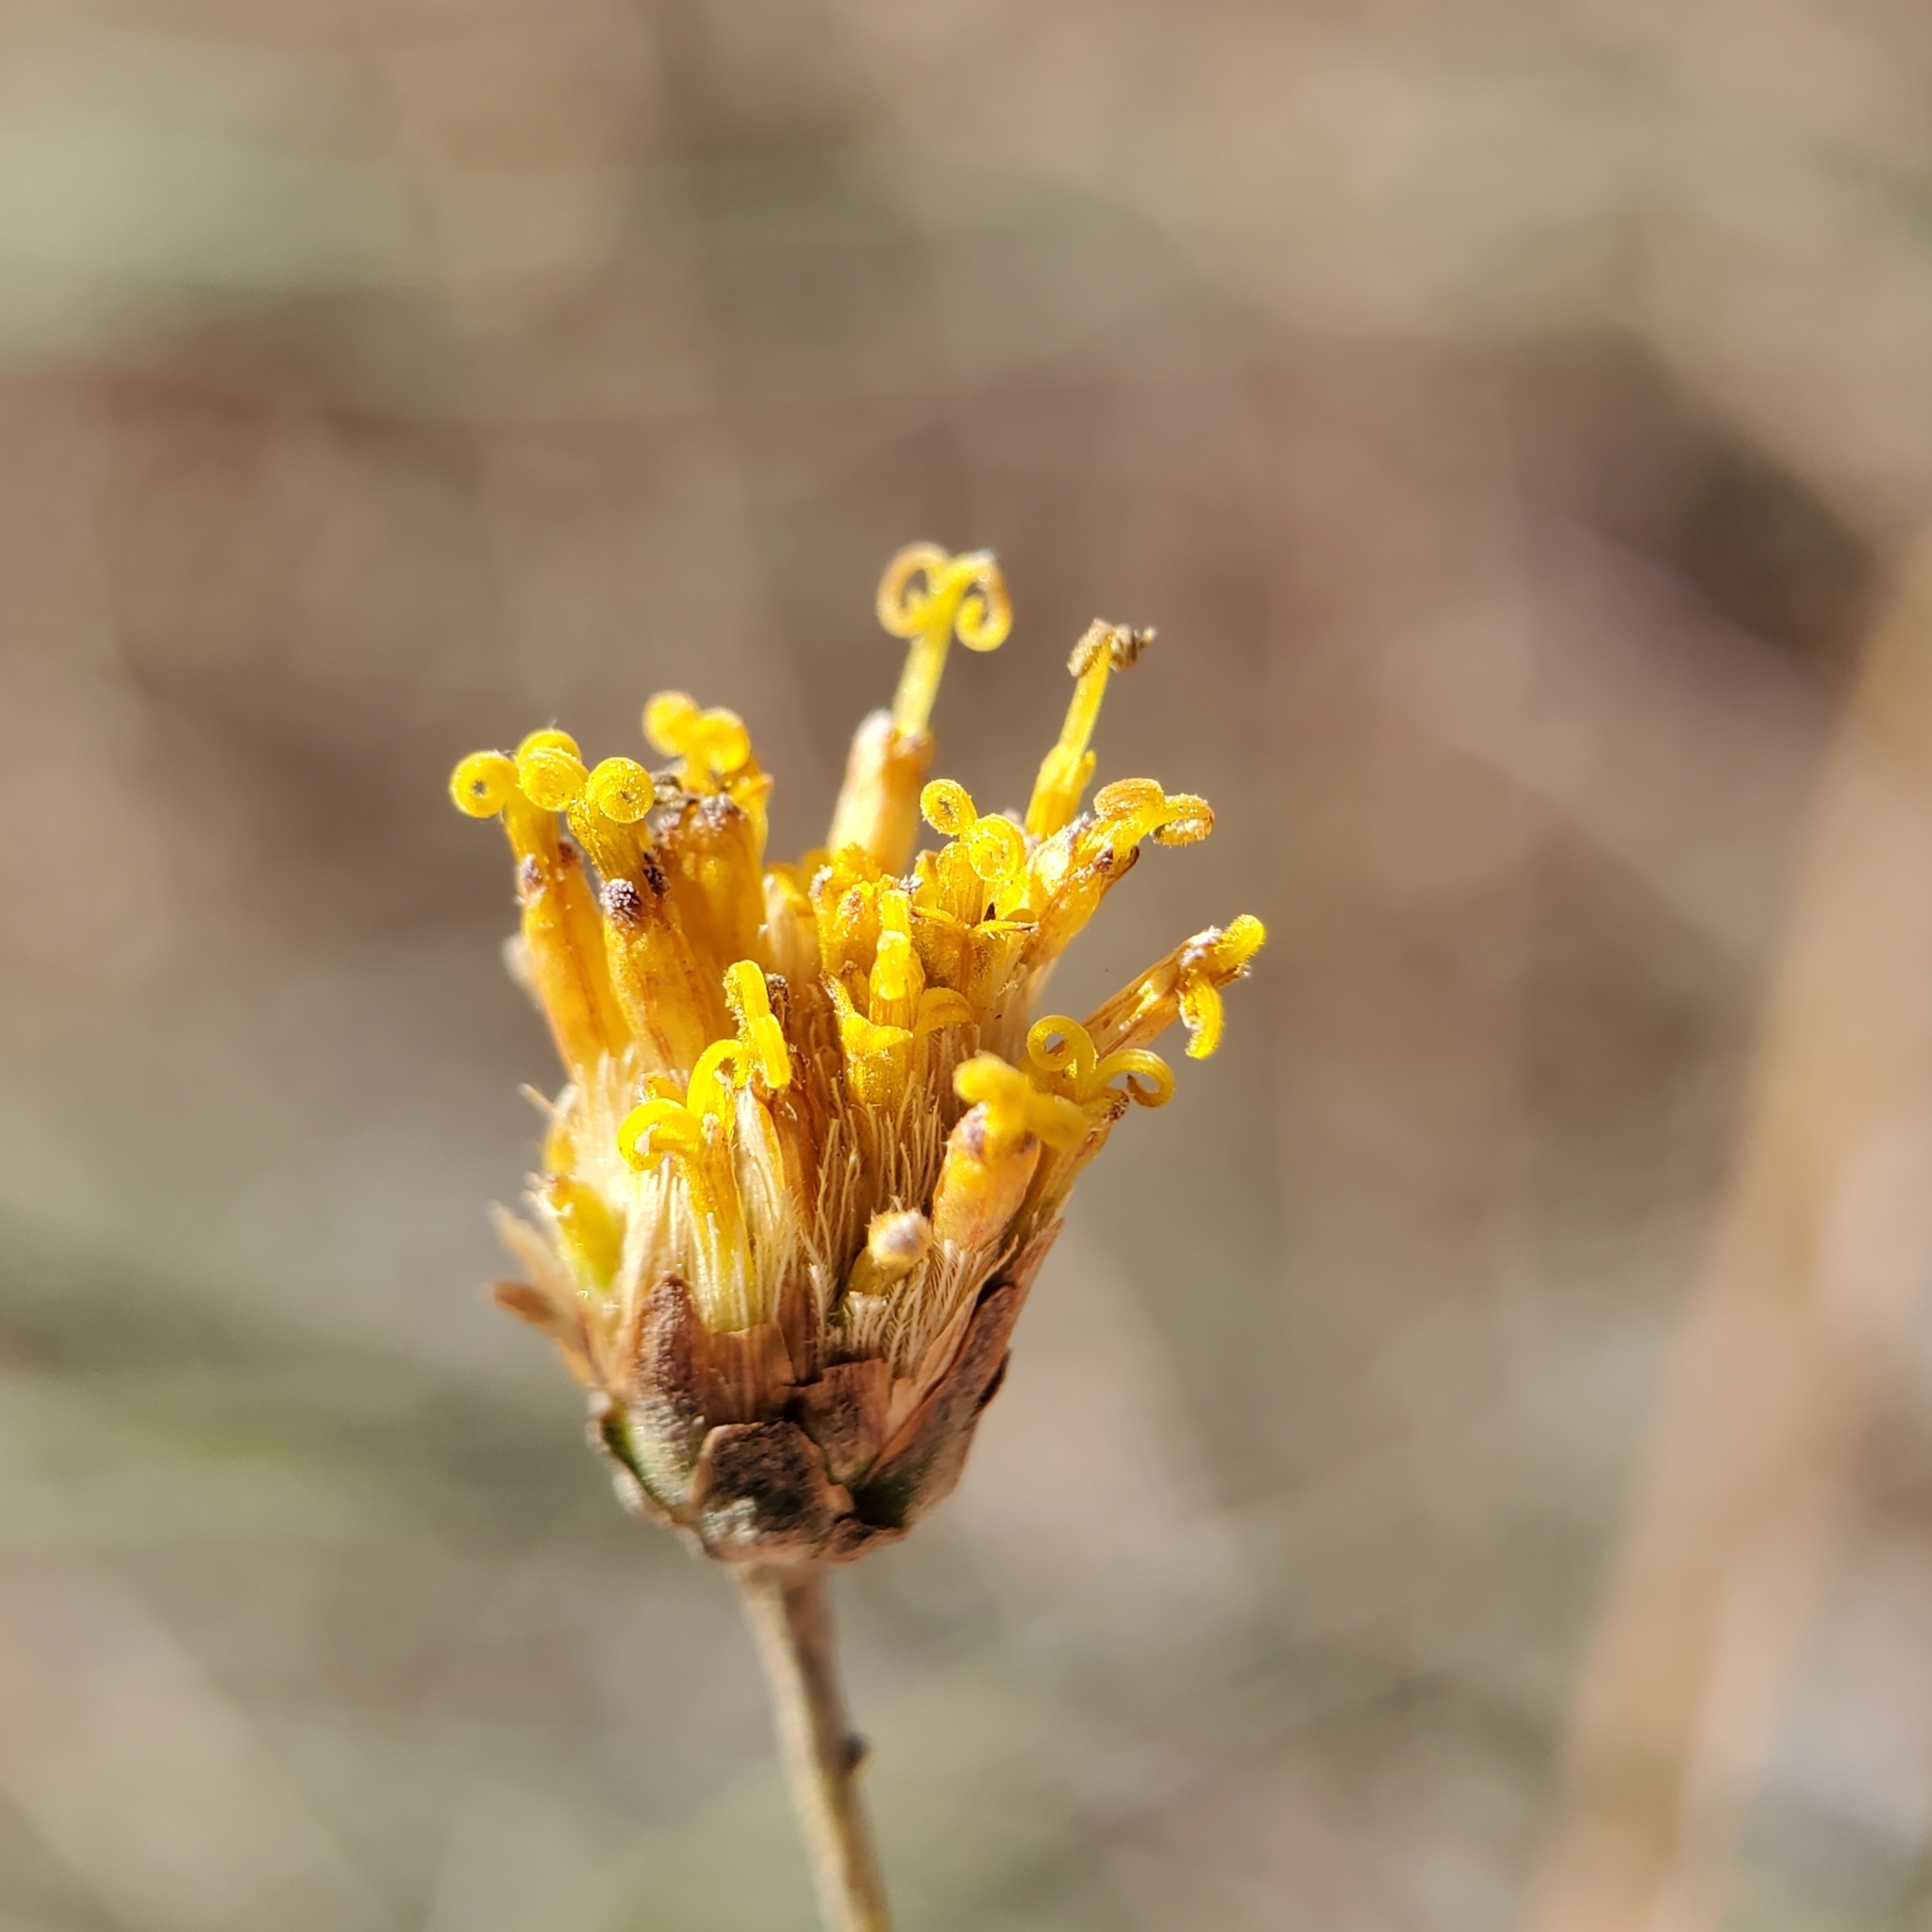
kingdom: Plantae
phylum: Tracheophyta
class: Magnoliopsida
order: Asterales
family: Asteraceae
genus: Bebbia
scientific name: Bebbia juncea
